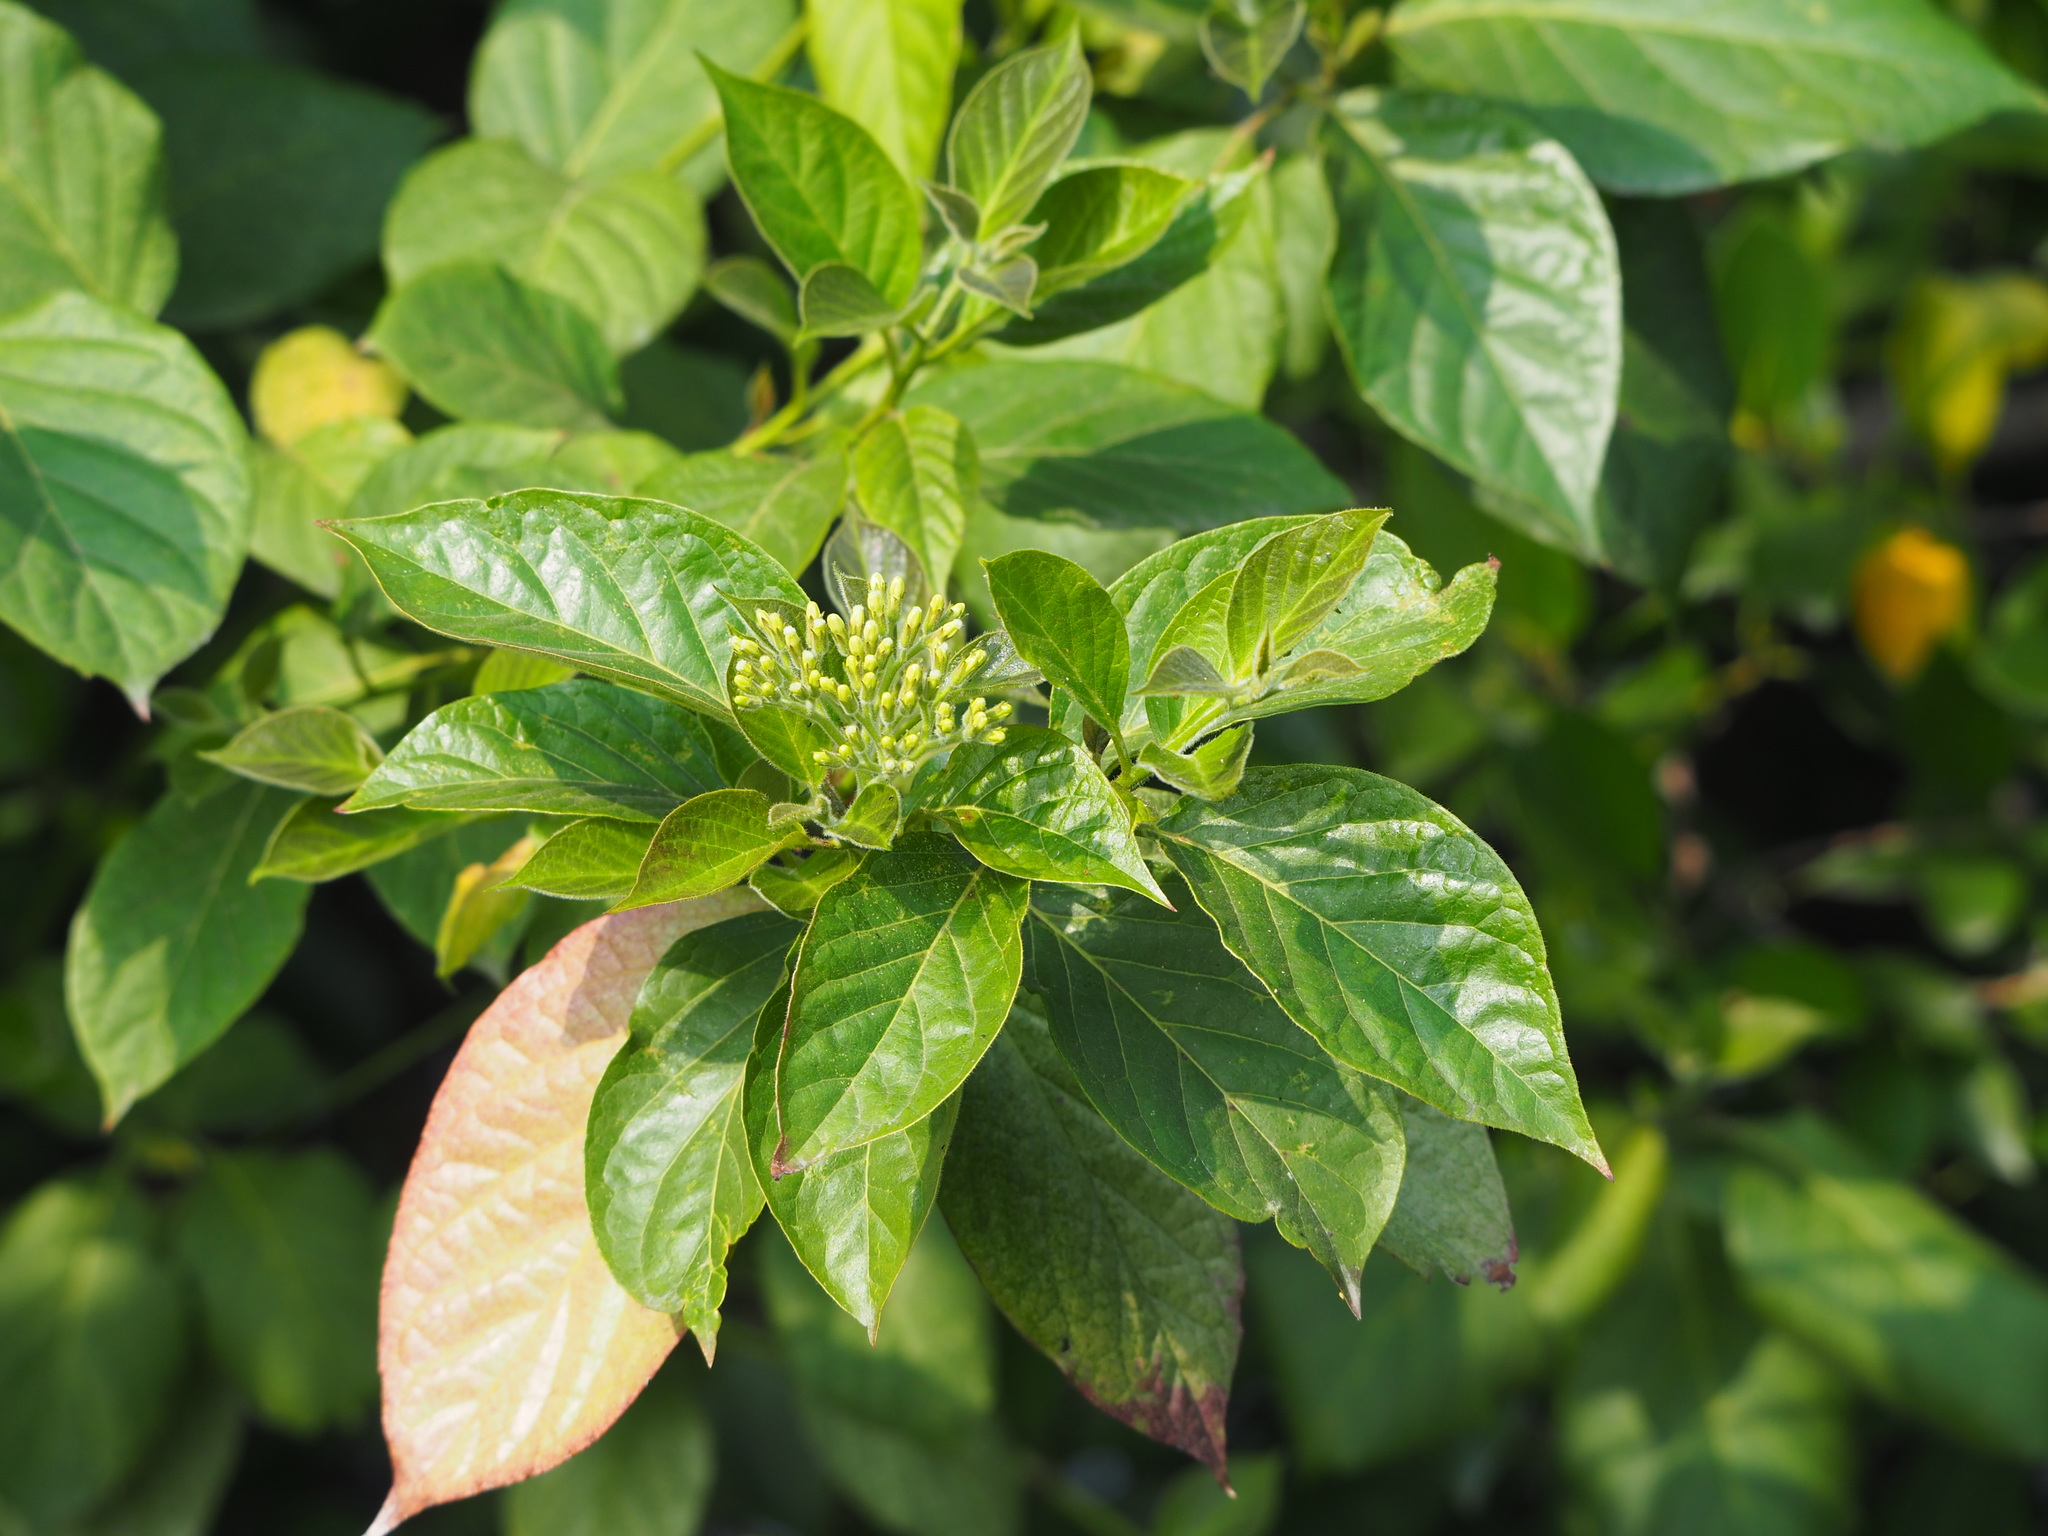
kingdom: Plantae
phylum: Tracheophyta
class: Magnoliopsida
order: Boraginales
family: Ehretiaceae
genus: Ehretia
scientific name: Ehretia resinosa
